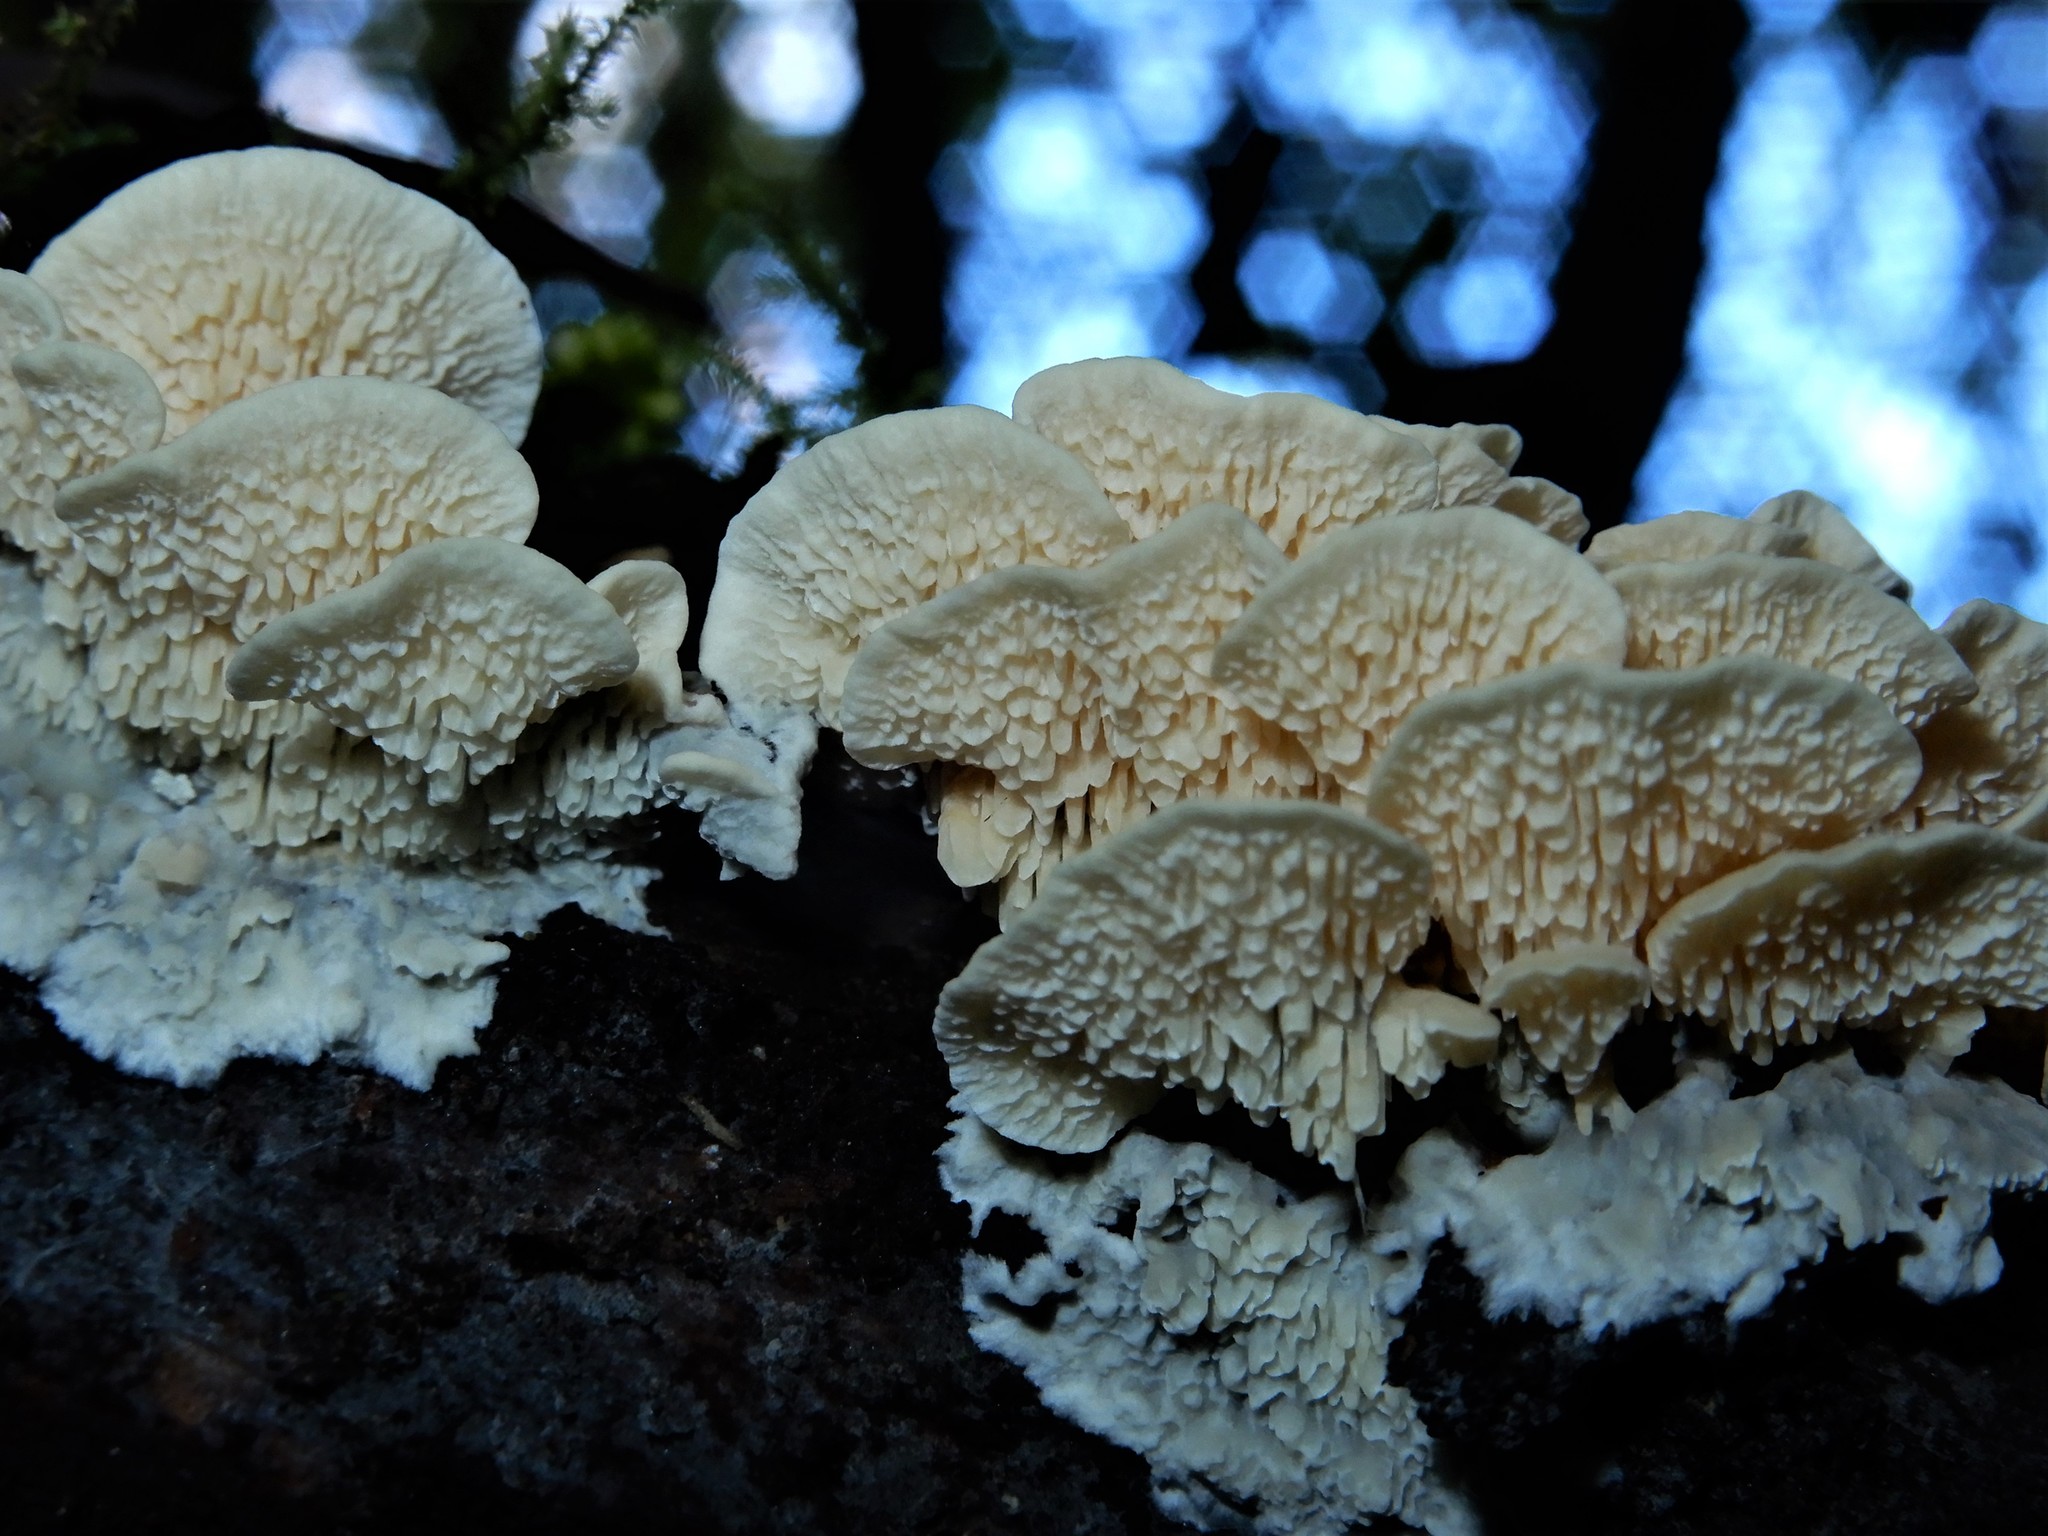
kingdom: Fungi
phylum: Basidiomycota
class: Agaricomycetes
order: Polyporales
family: Cerrenaceae
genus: Cerrena
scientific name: Cerrena zonata
